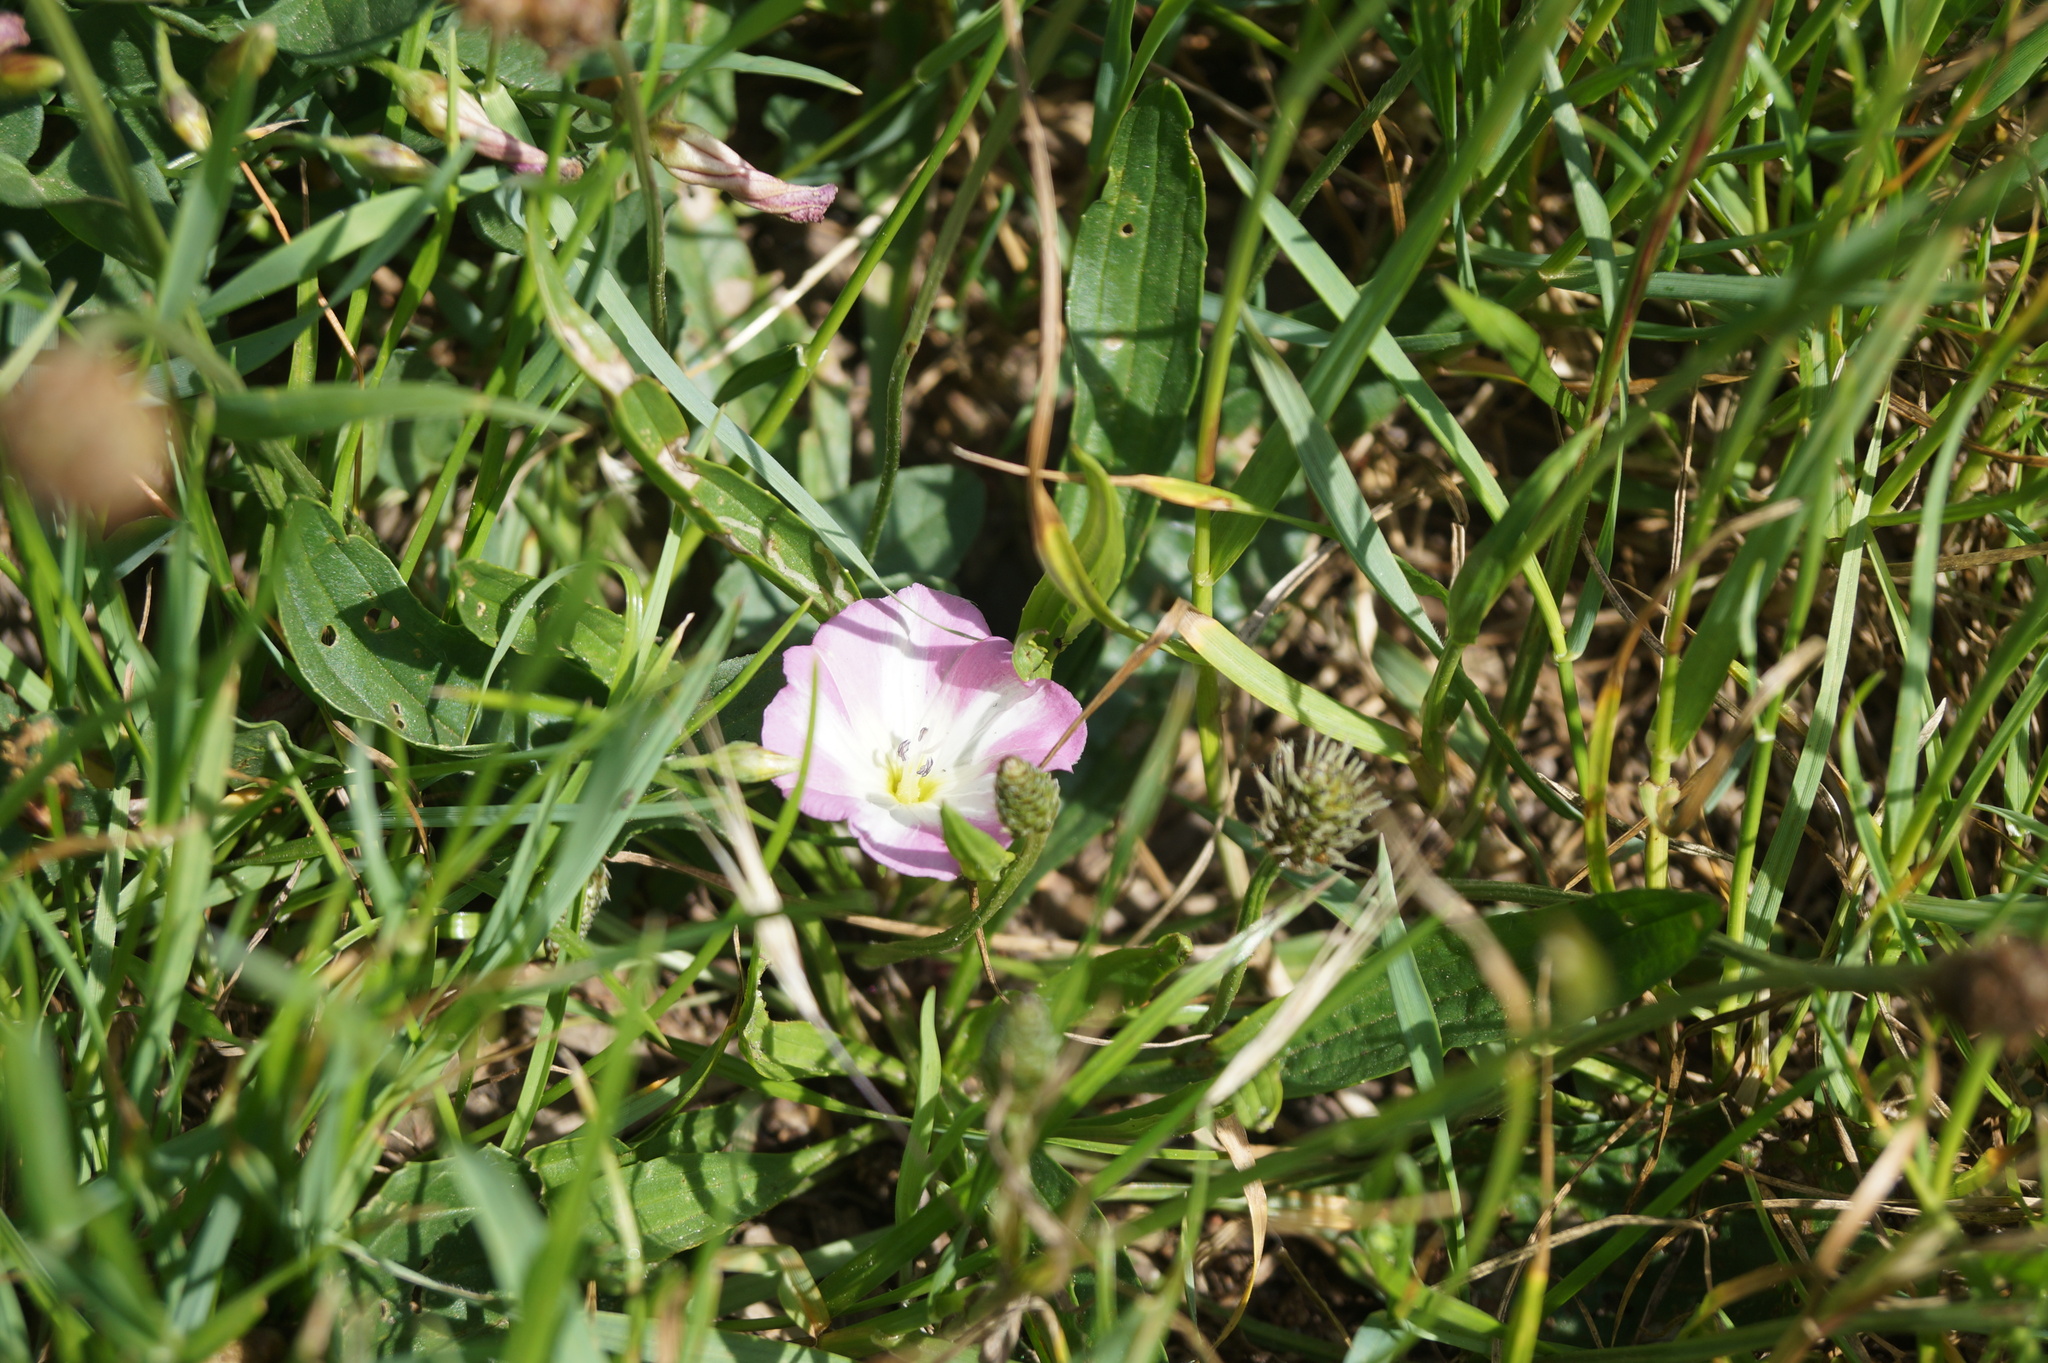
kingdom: Plantae
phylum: Tracheophyta
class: Magnoliopsida
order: Solanales
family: Convolvulaceae
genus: Convolvulus
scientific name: Convolvulus arvensis
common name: Field bindweed
